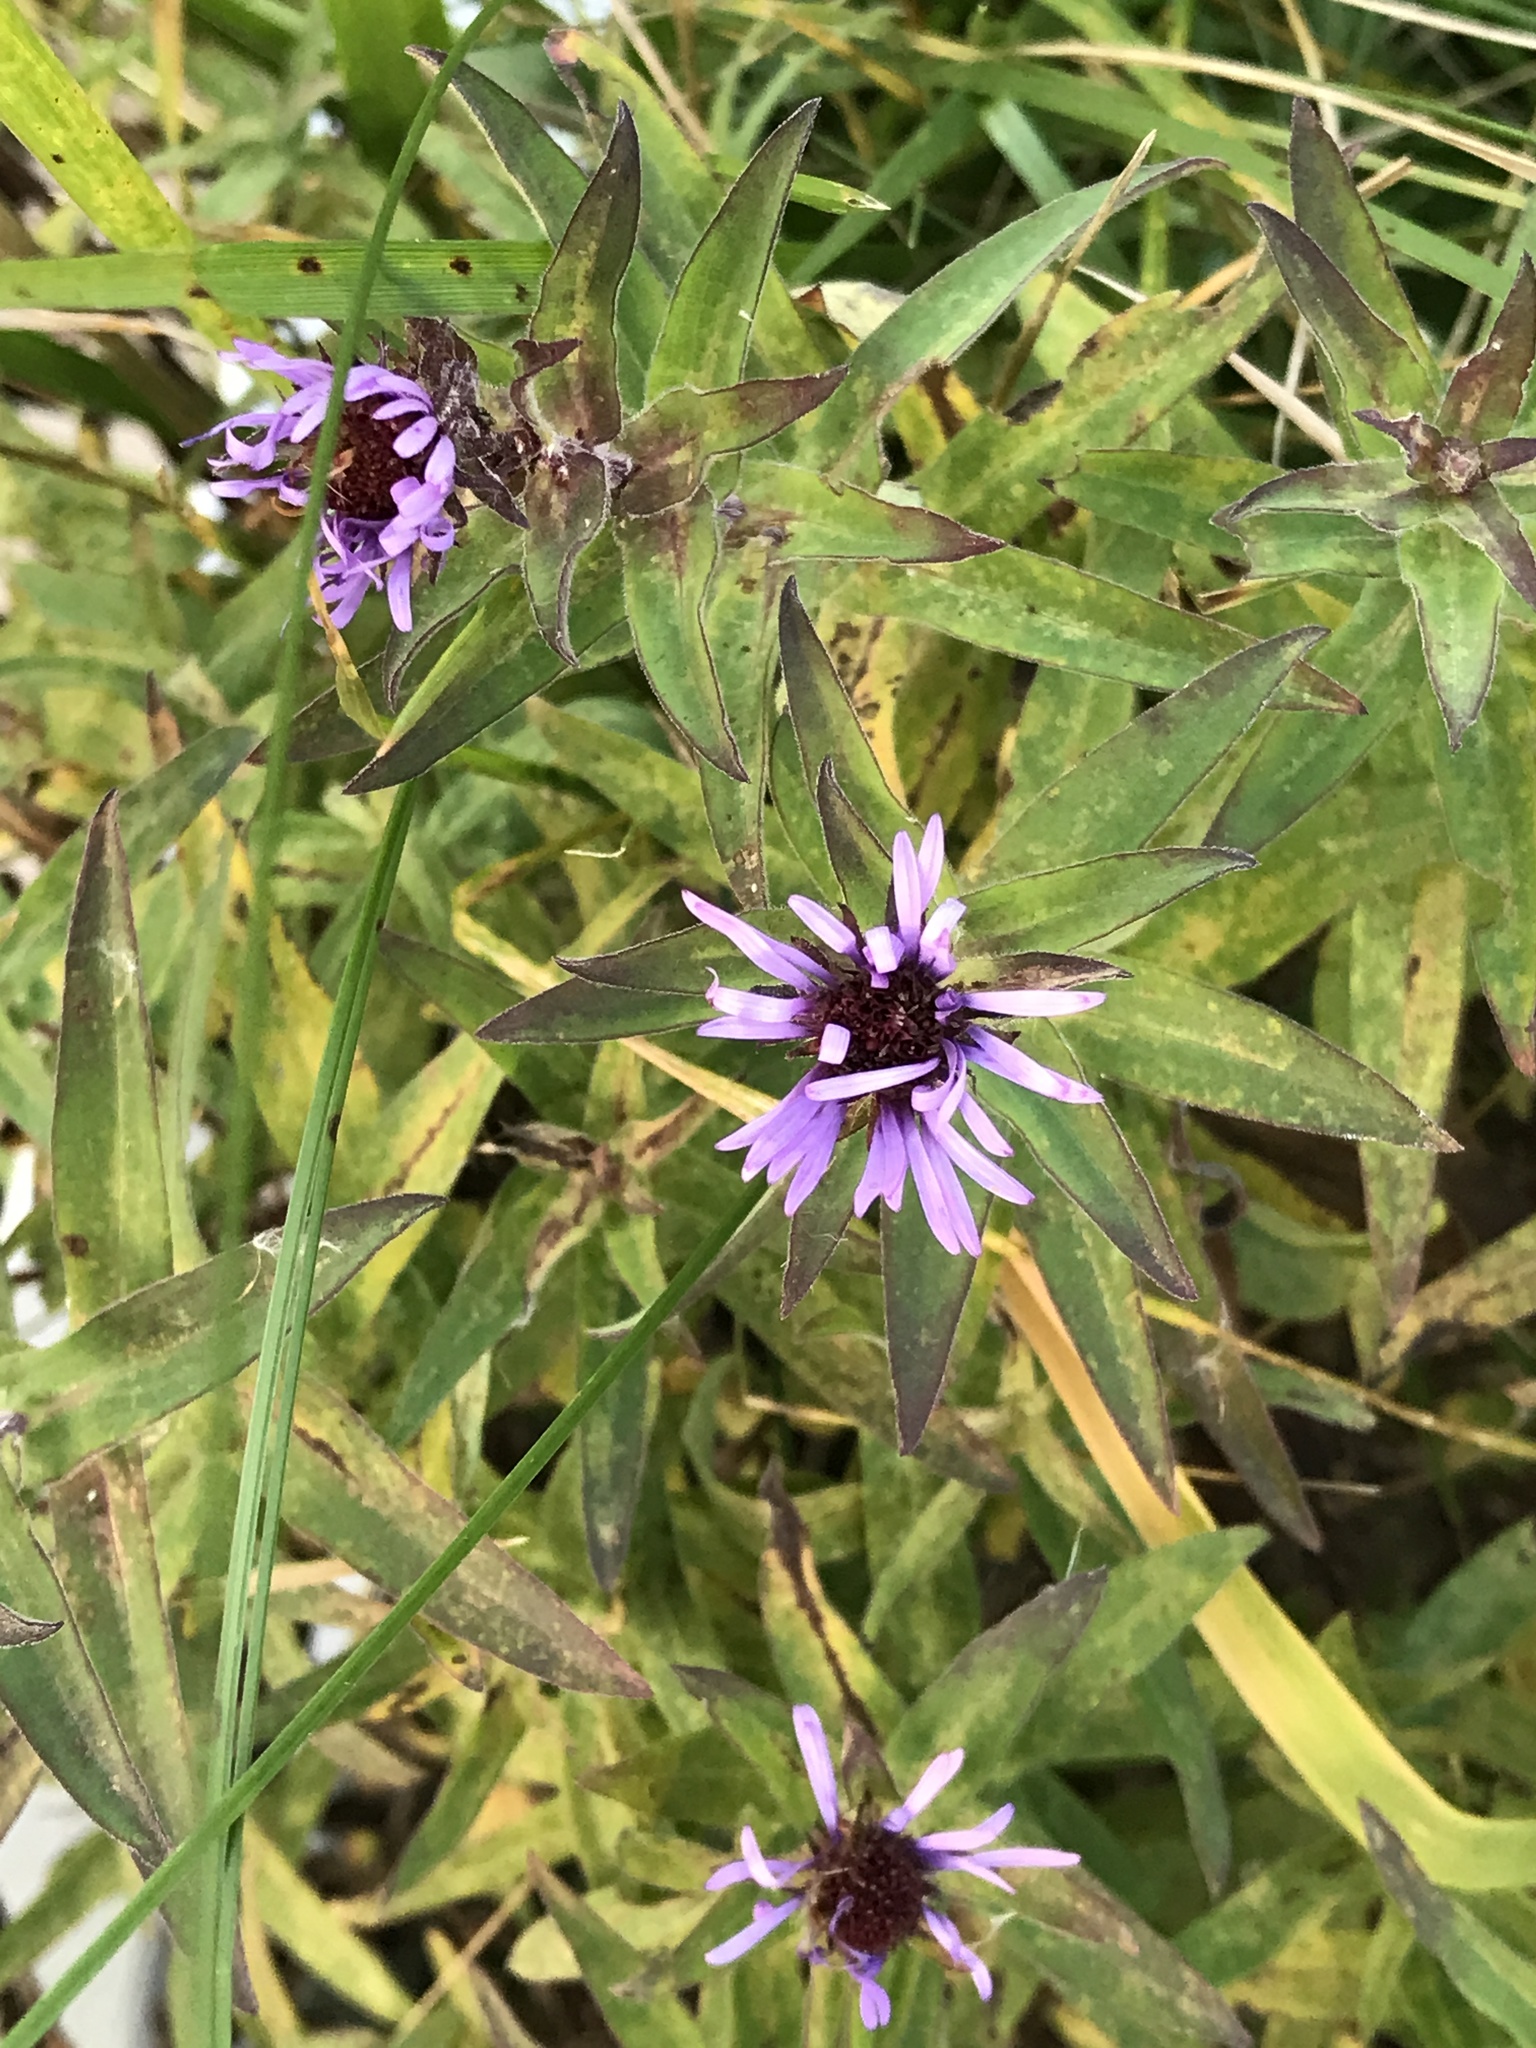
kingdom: Plantae
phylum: Tracheophyta
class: Magnoliopsida
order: Asterales
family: Asteraceae
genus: Symphyotrichum
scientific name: Symphyotrichum novae-angliae
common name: Michaelmas daisy
